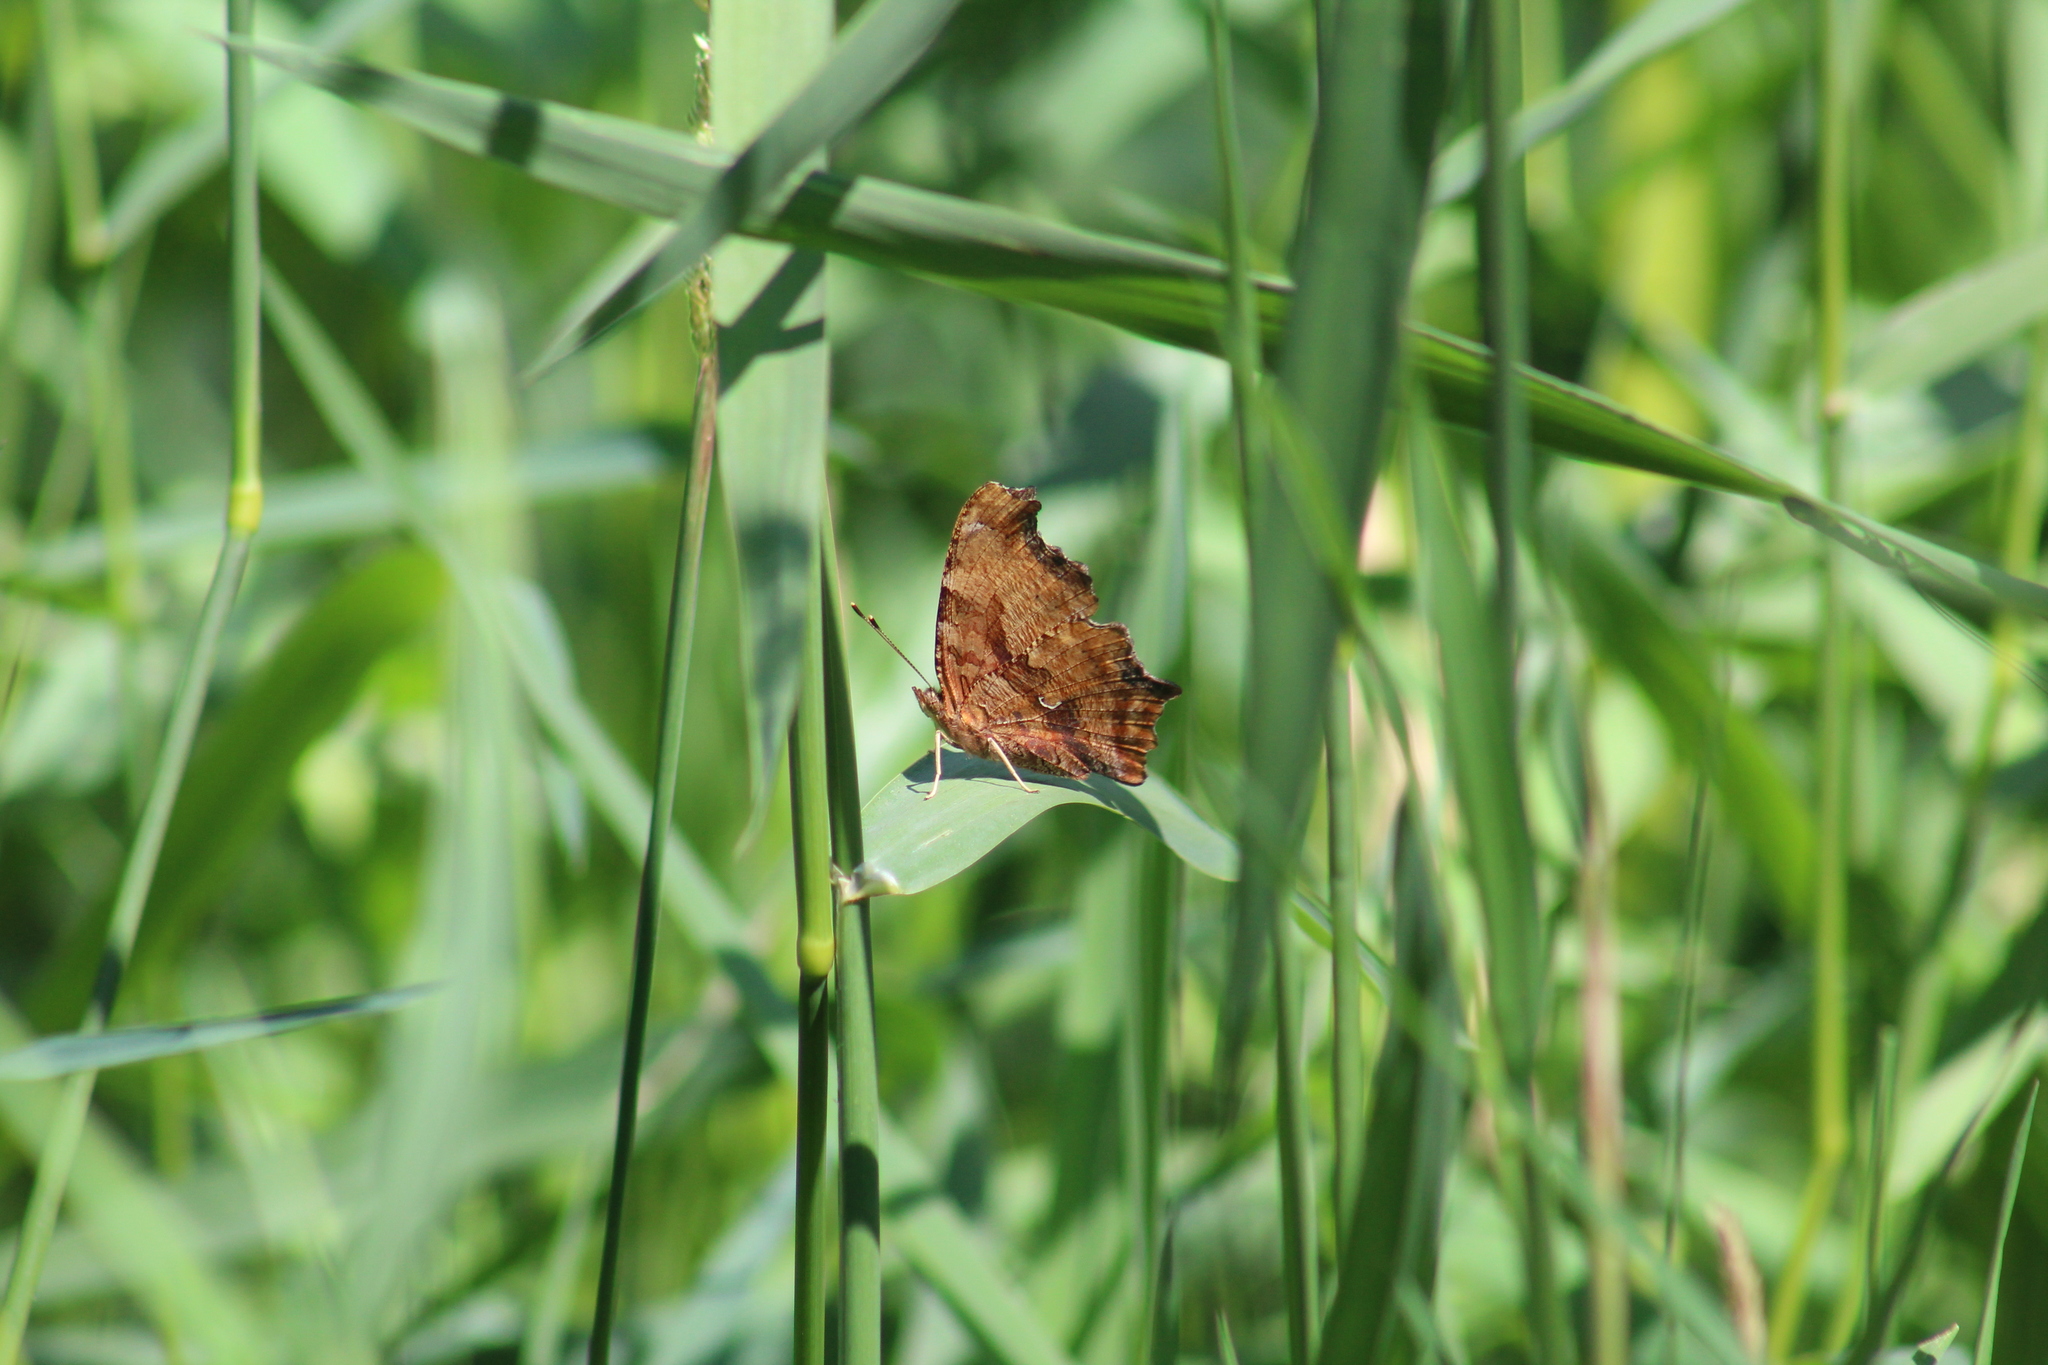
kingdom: Animalia
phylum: Arthropoda
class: Insecta
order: Lepidoptera
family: Nymphalidae
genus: Polygonia
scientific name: Polygonia comma
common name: Eastern comma
